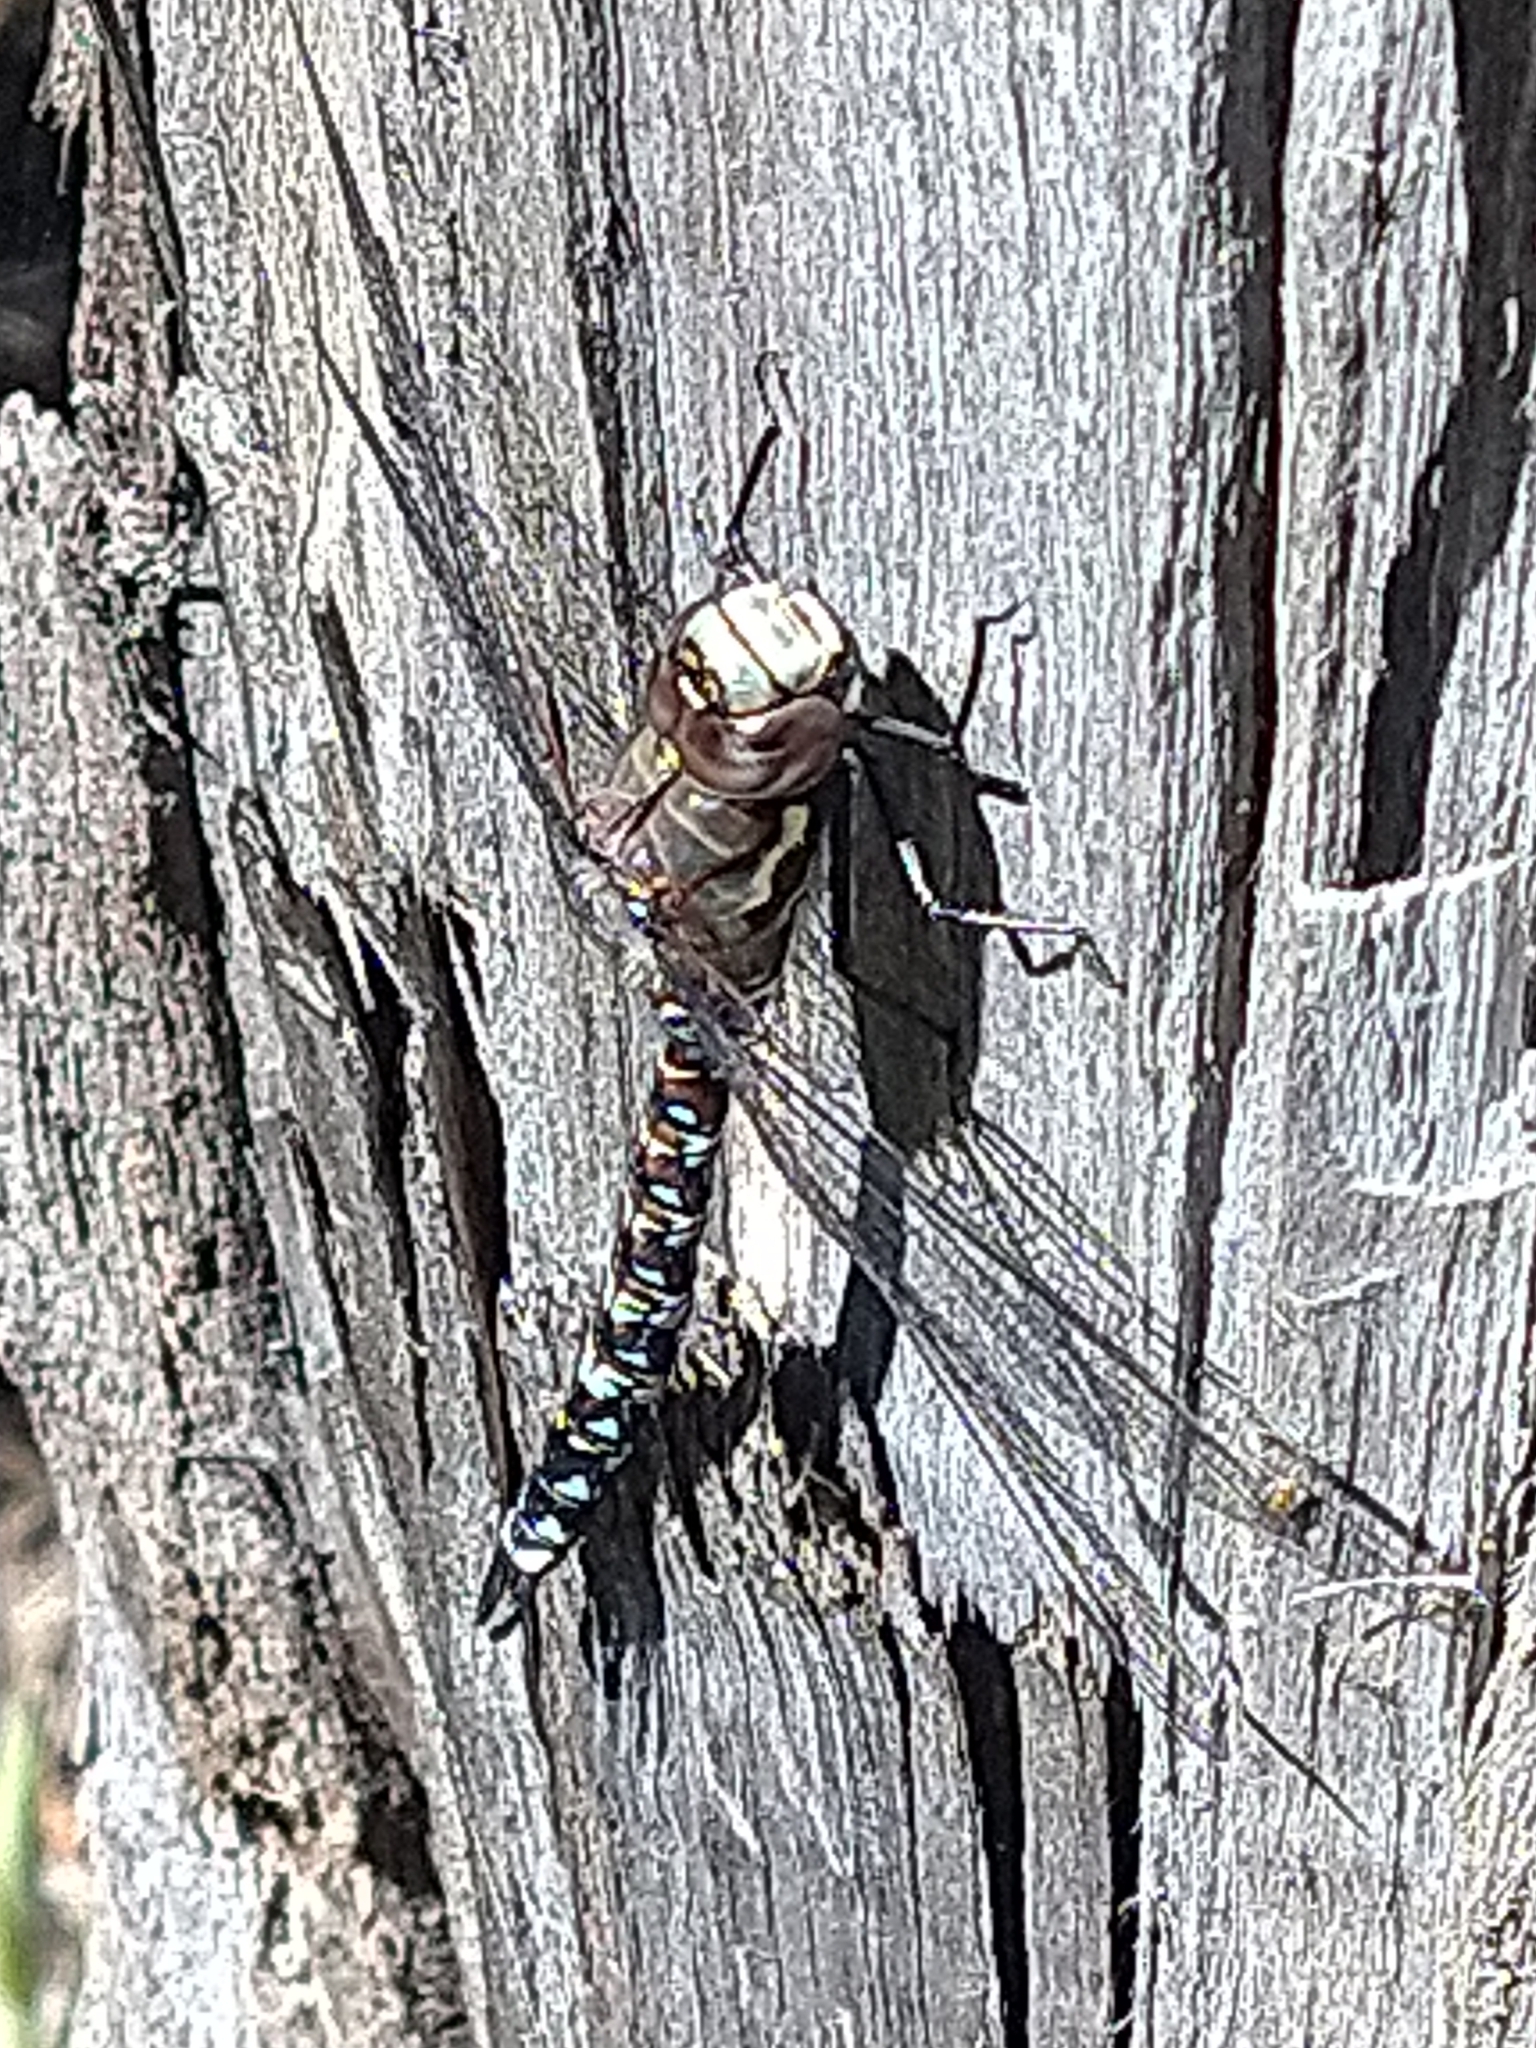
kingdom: Animalia
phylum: Arthropoda
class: Insecta
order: Odonata
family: Aeshnidae
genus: Rhionaeschna
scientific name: Rhionaeschna variegata
